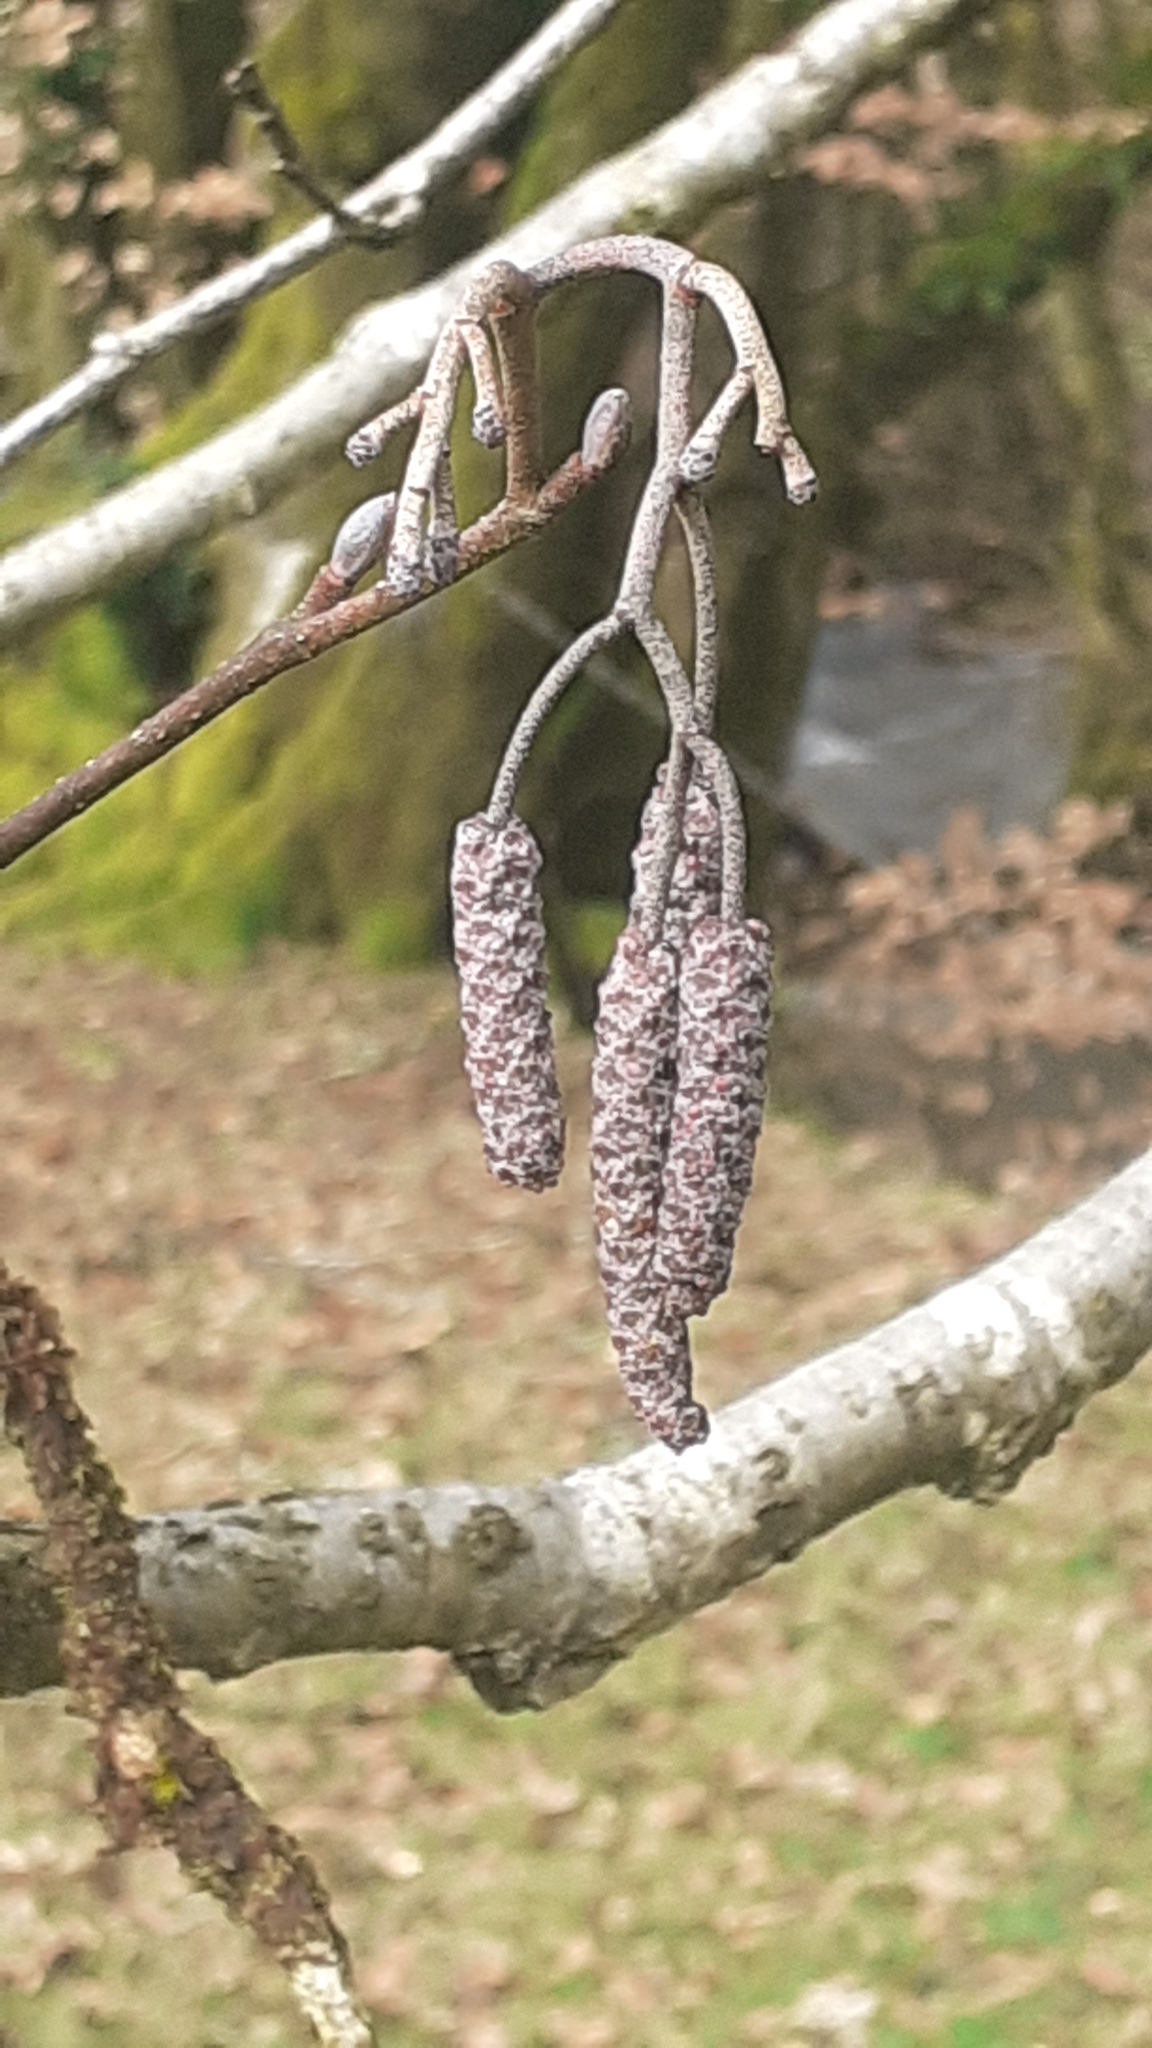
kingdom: Plantae
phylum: Tracheophyta
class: Magnoliopsida
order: Fagales
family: Betulaceae
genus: Alnus
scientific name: Alnus glutinosa
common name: Black alder
